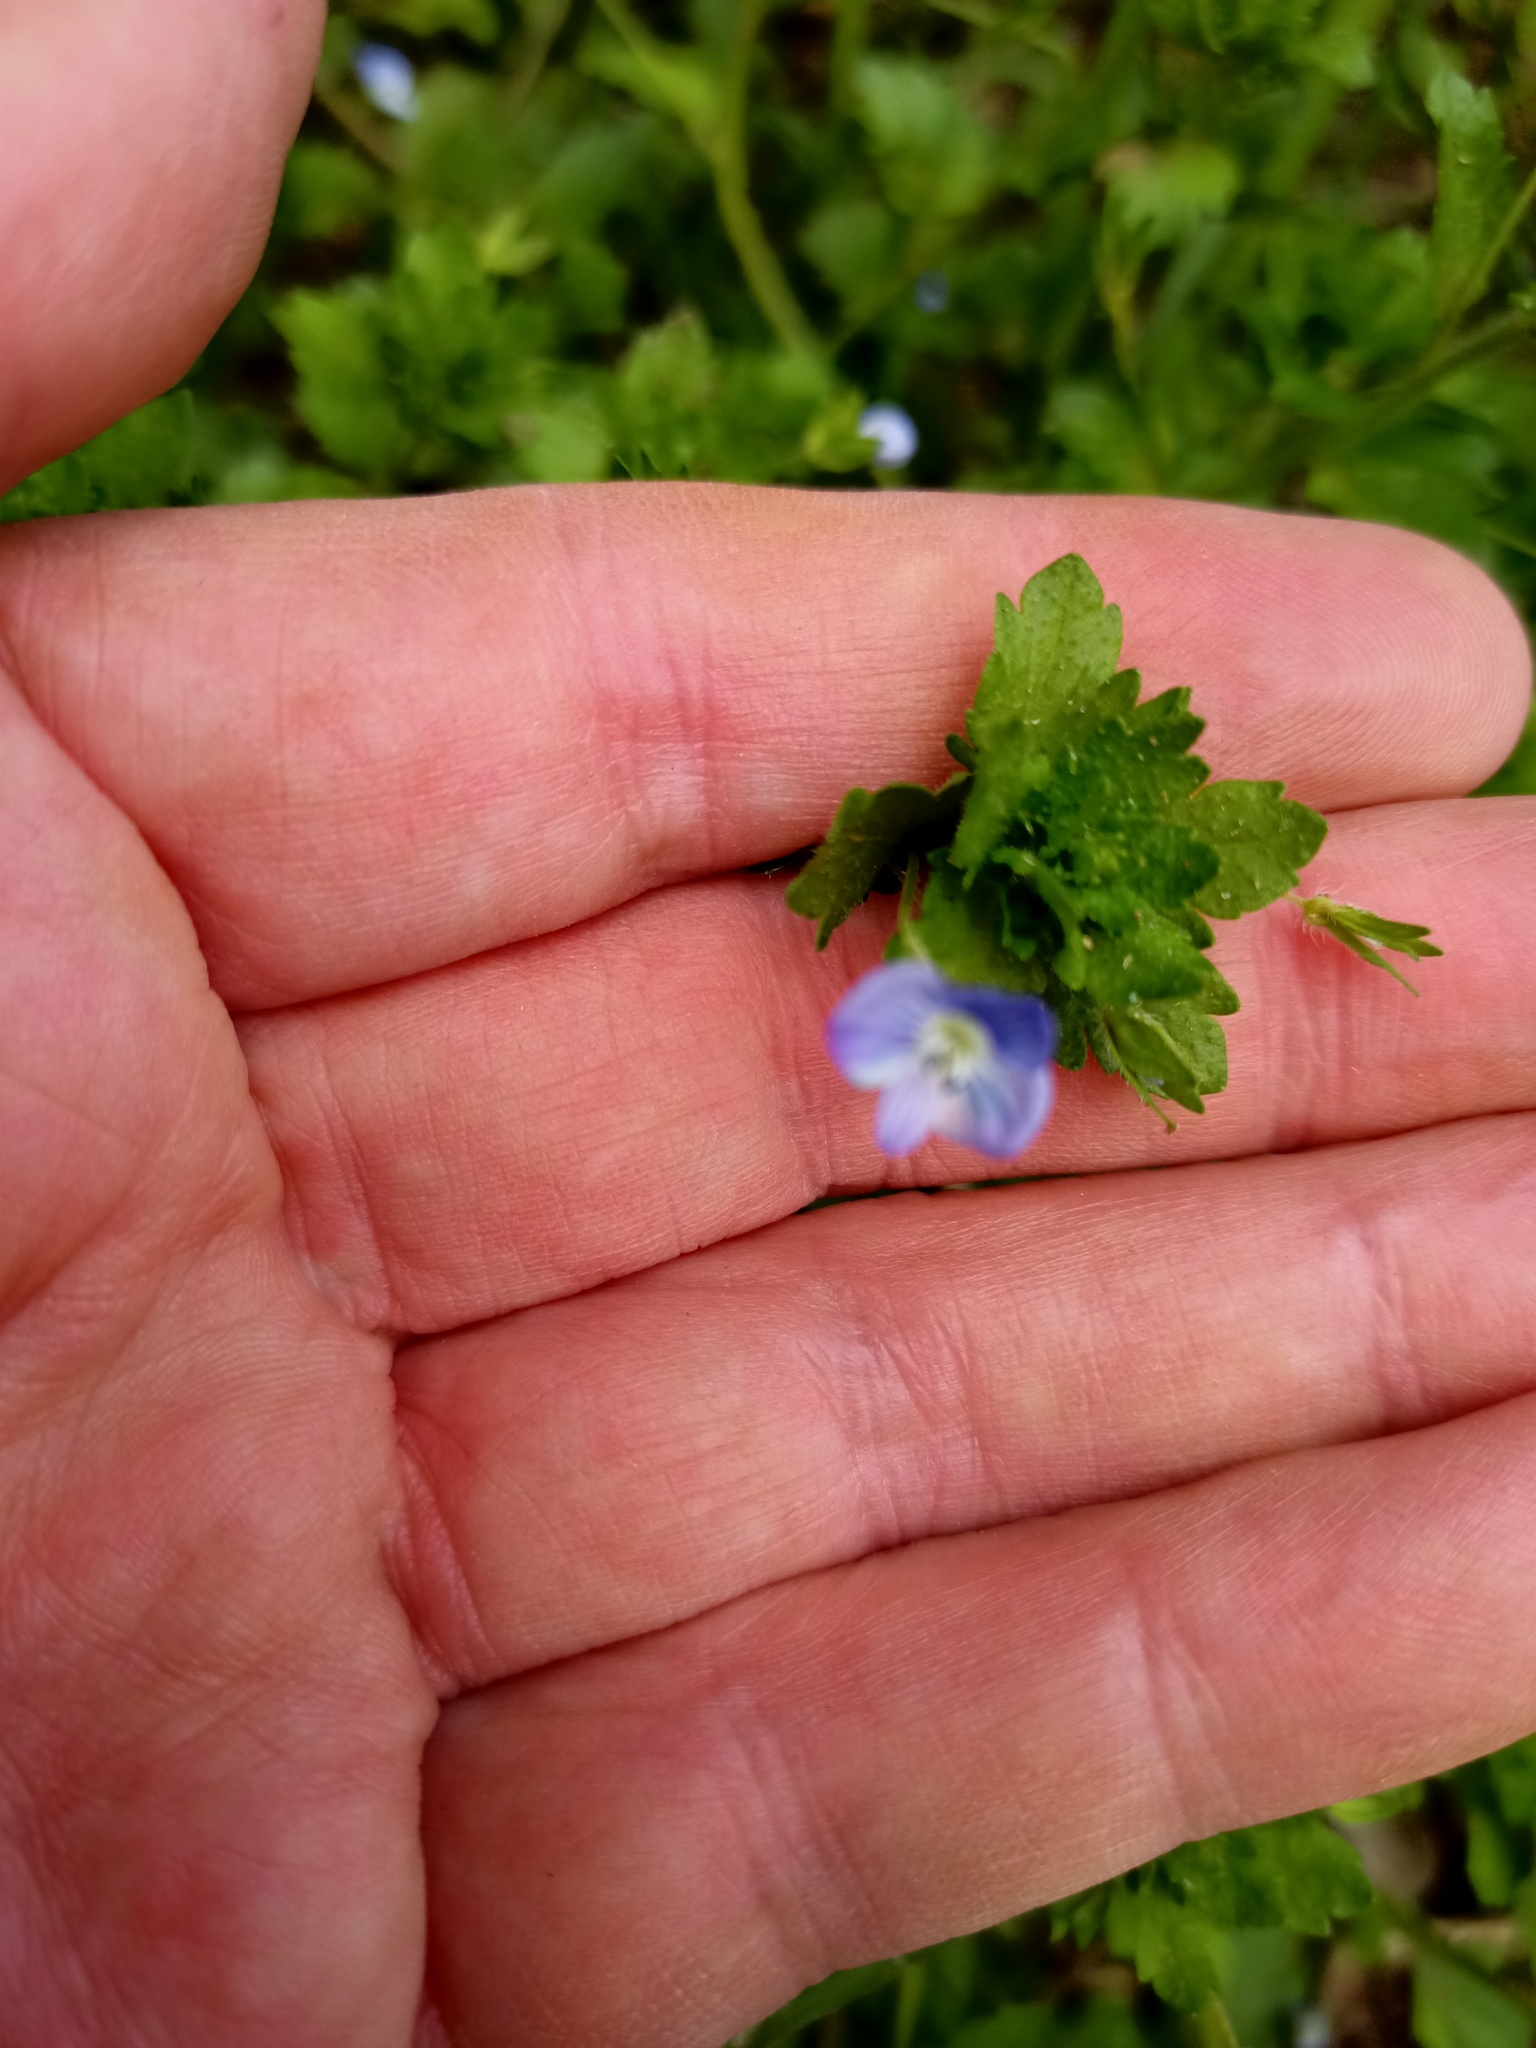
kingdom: Plantae
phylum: Tracheophyta
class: Magnoliopsida
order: Lamiales
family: Plantaginaceae
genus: Veronica
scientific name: Veronica persica
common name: Common field-speedwell
